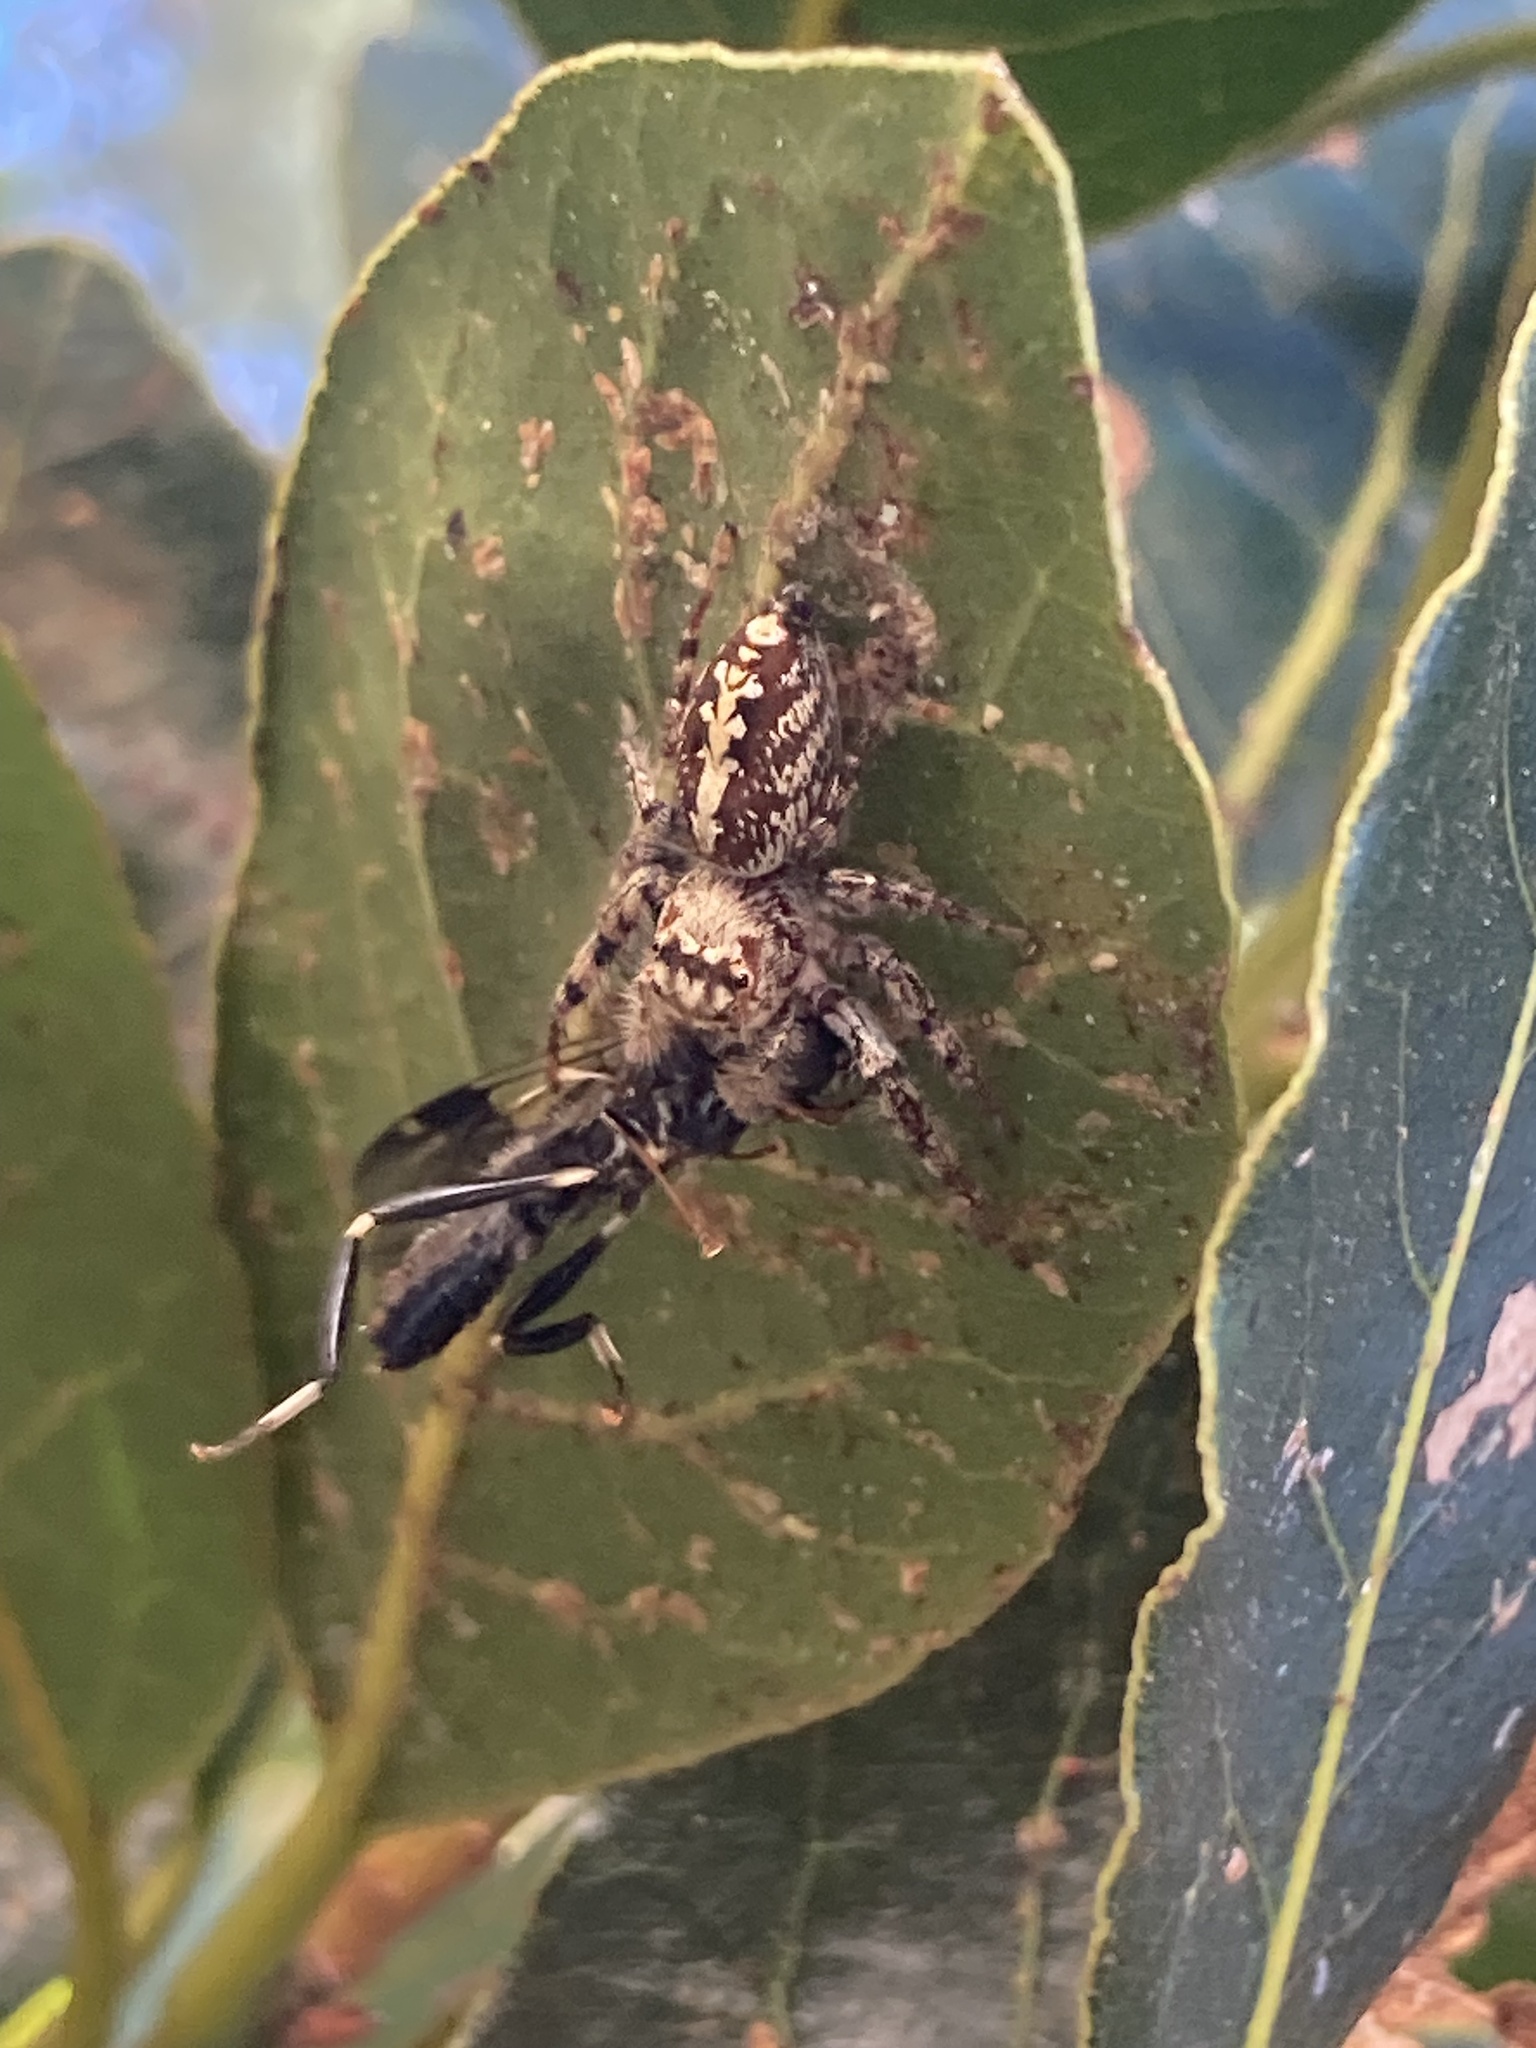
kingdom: Animalia
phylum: Arthropoda
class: Insecta
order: Diptera
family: Stratiomyidae
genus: Exaireta
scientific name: Exaireta spinigera
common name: Blue soldier fly
